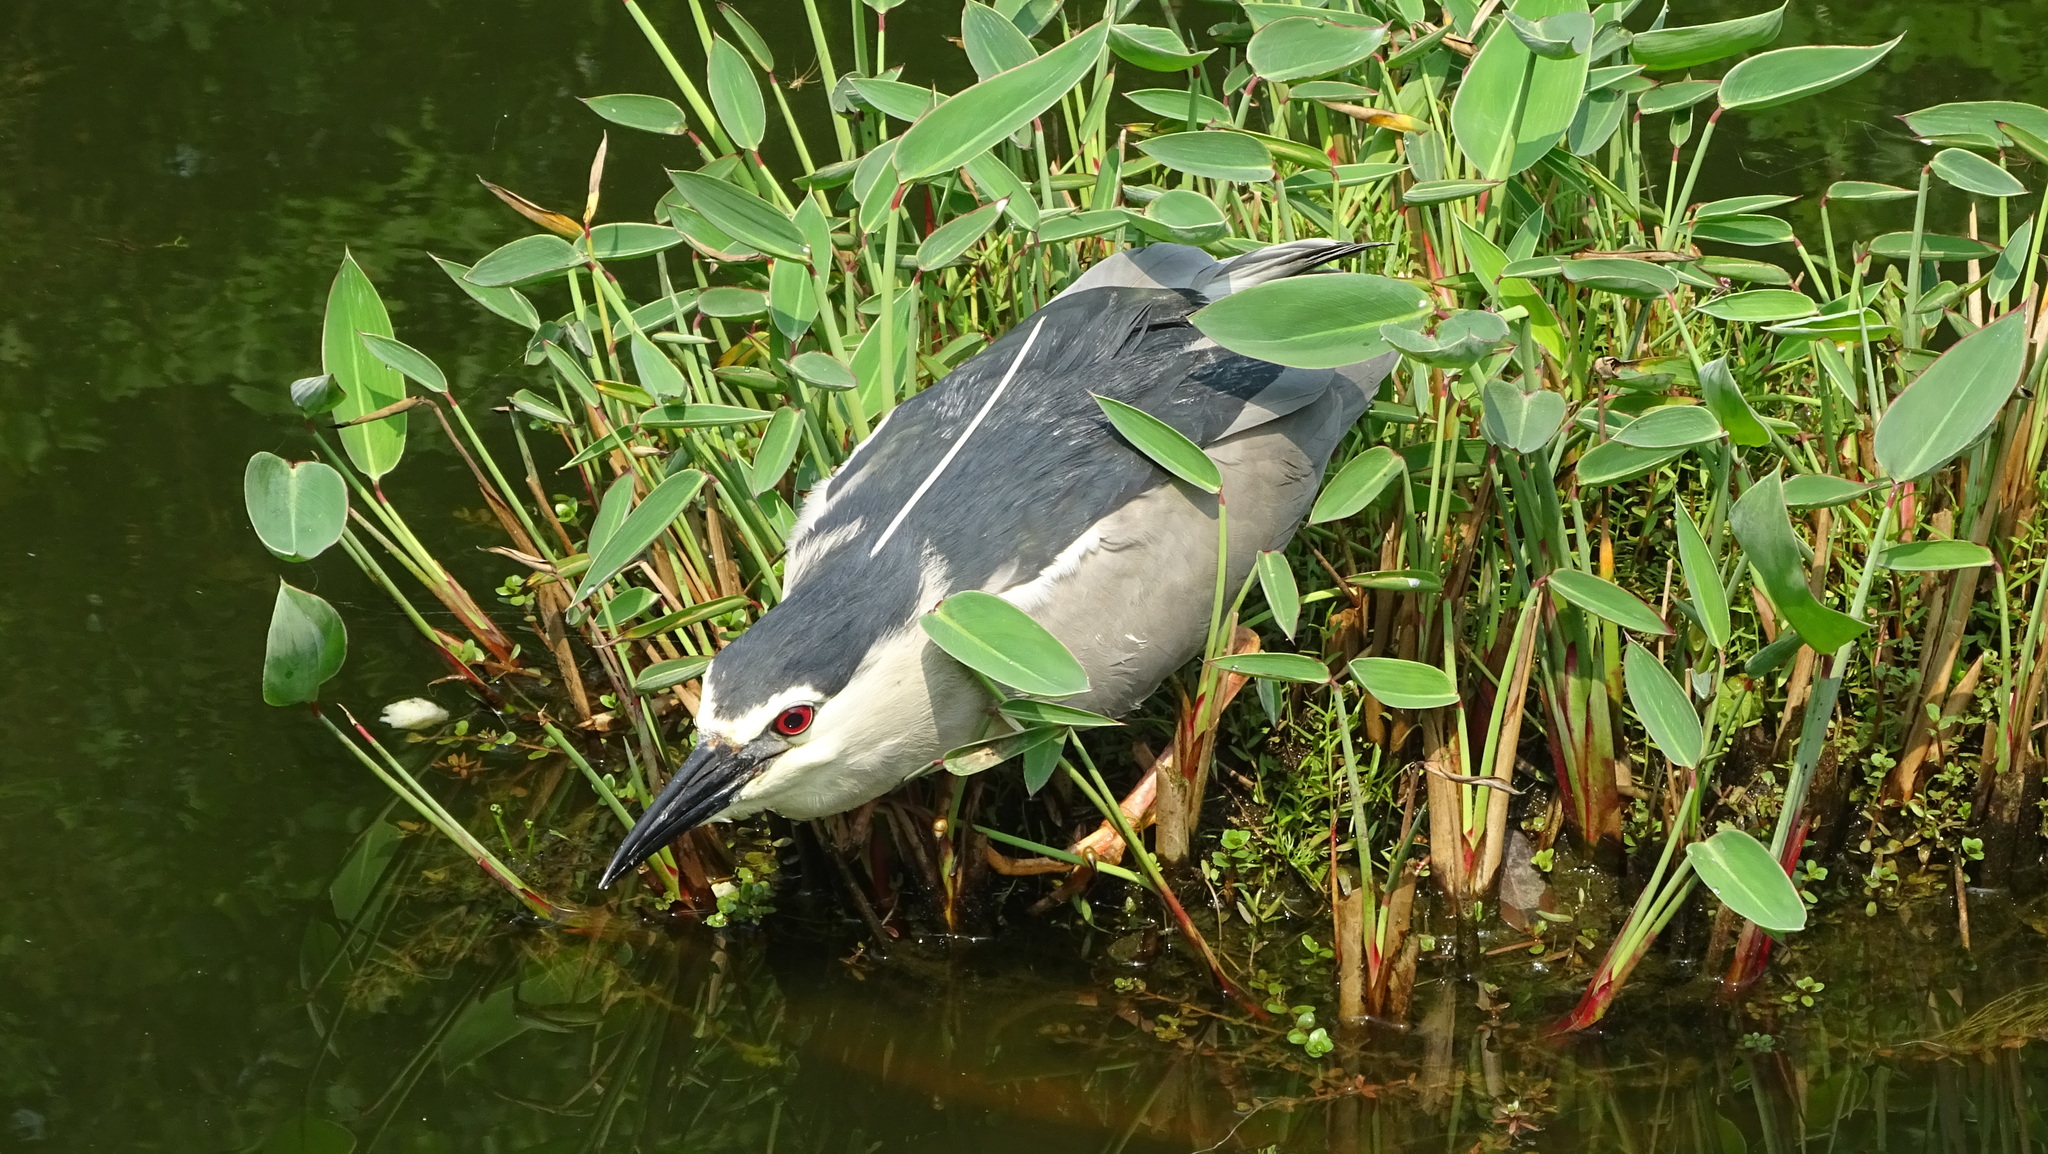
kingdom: Animalia
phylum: Chordata
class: Aves
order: Pelecaniformes
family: Ardeidae
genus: Nycticorax
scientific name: Nycticorax nycticorax
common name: Black-crowned night heron
